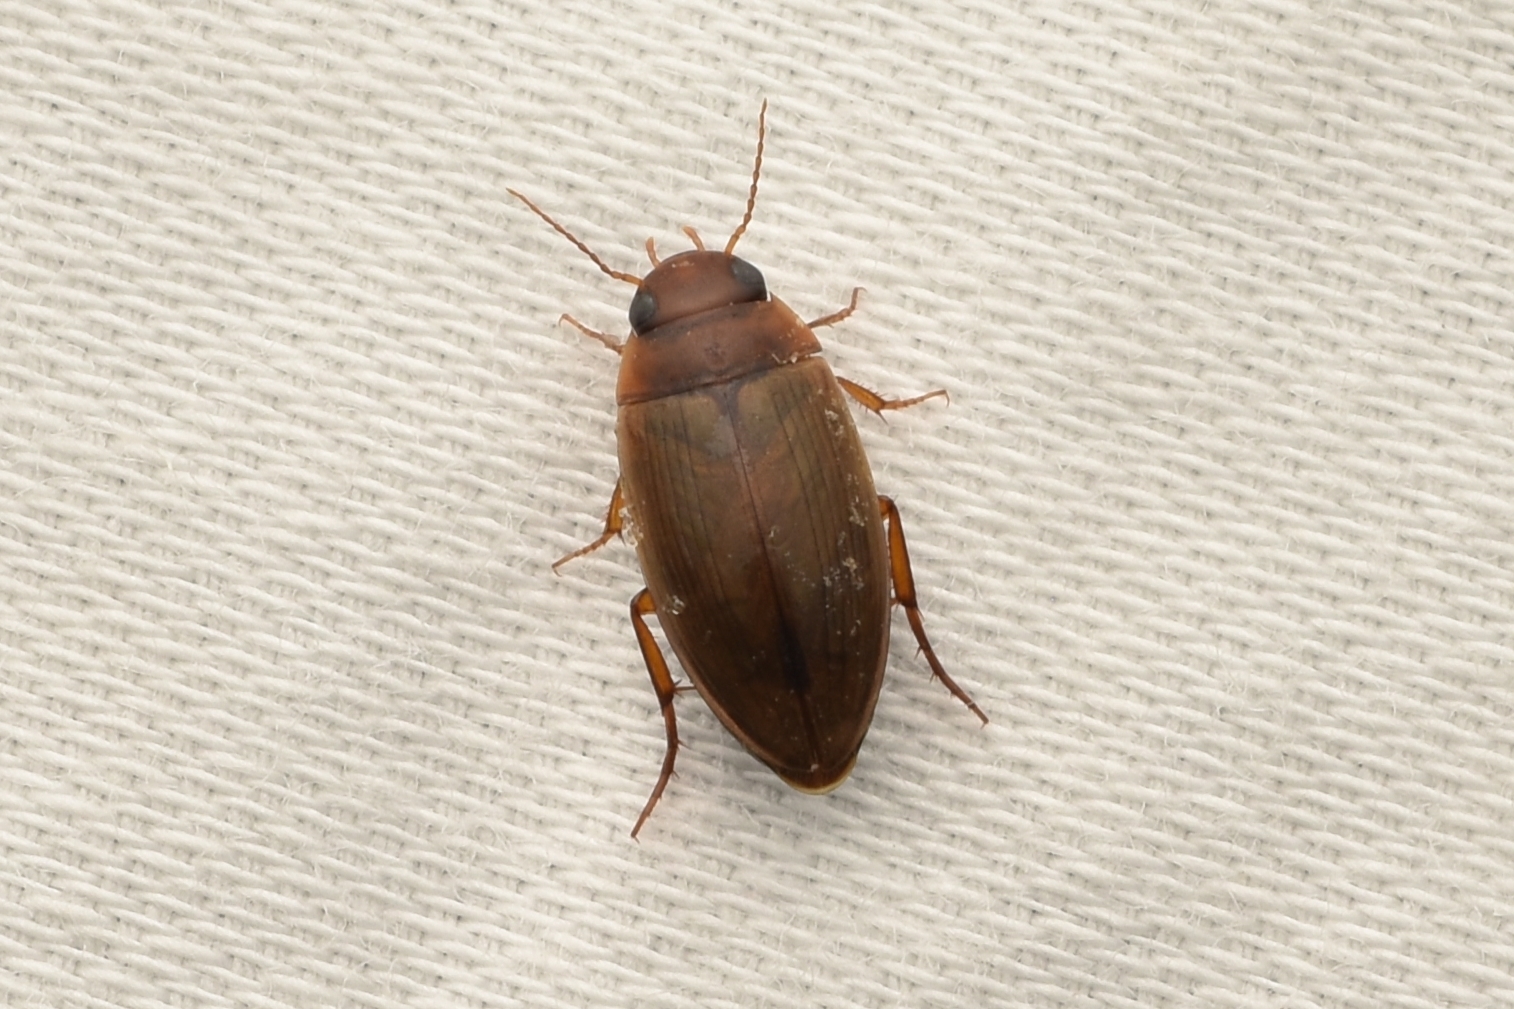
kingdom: Animalia
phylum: Arthropoda
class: Insecta
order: Coleoptera
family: Dytiscidae
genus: Copelatus
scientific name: Copelatus chevrolati
